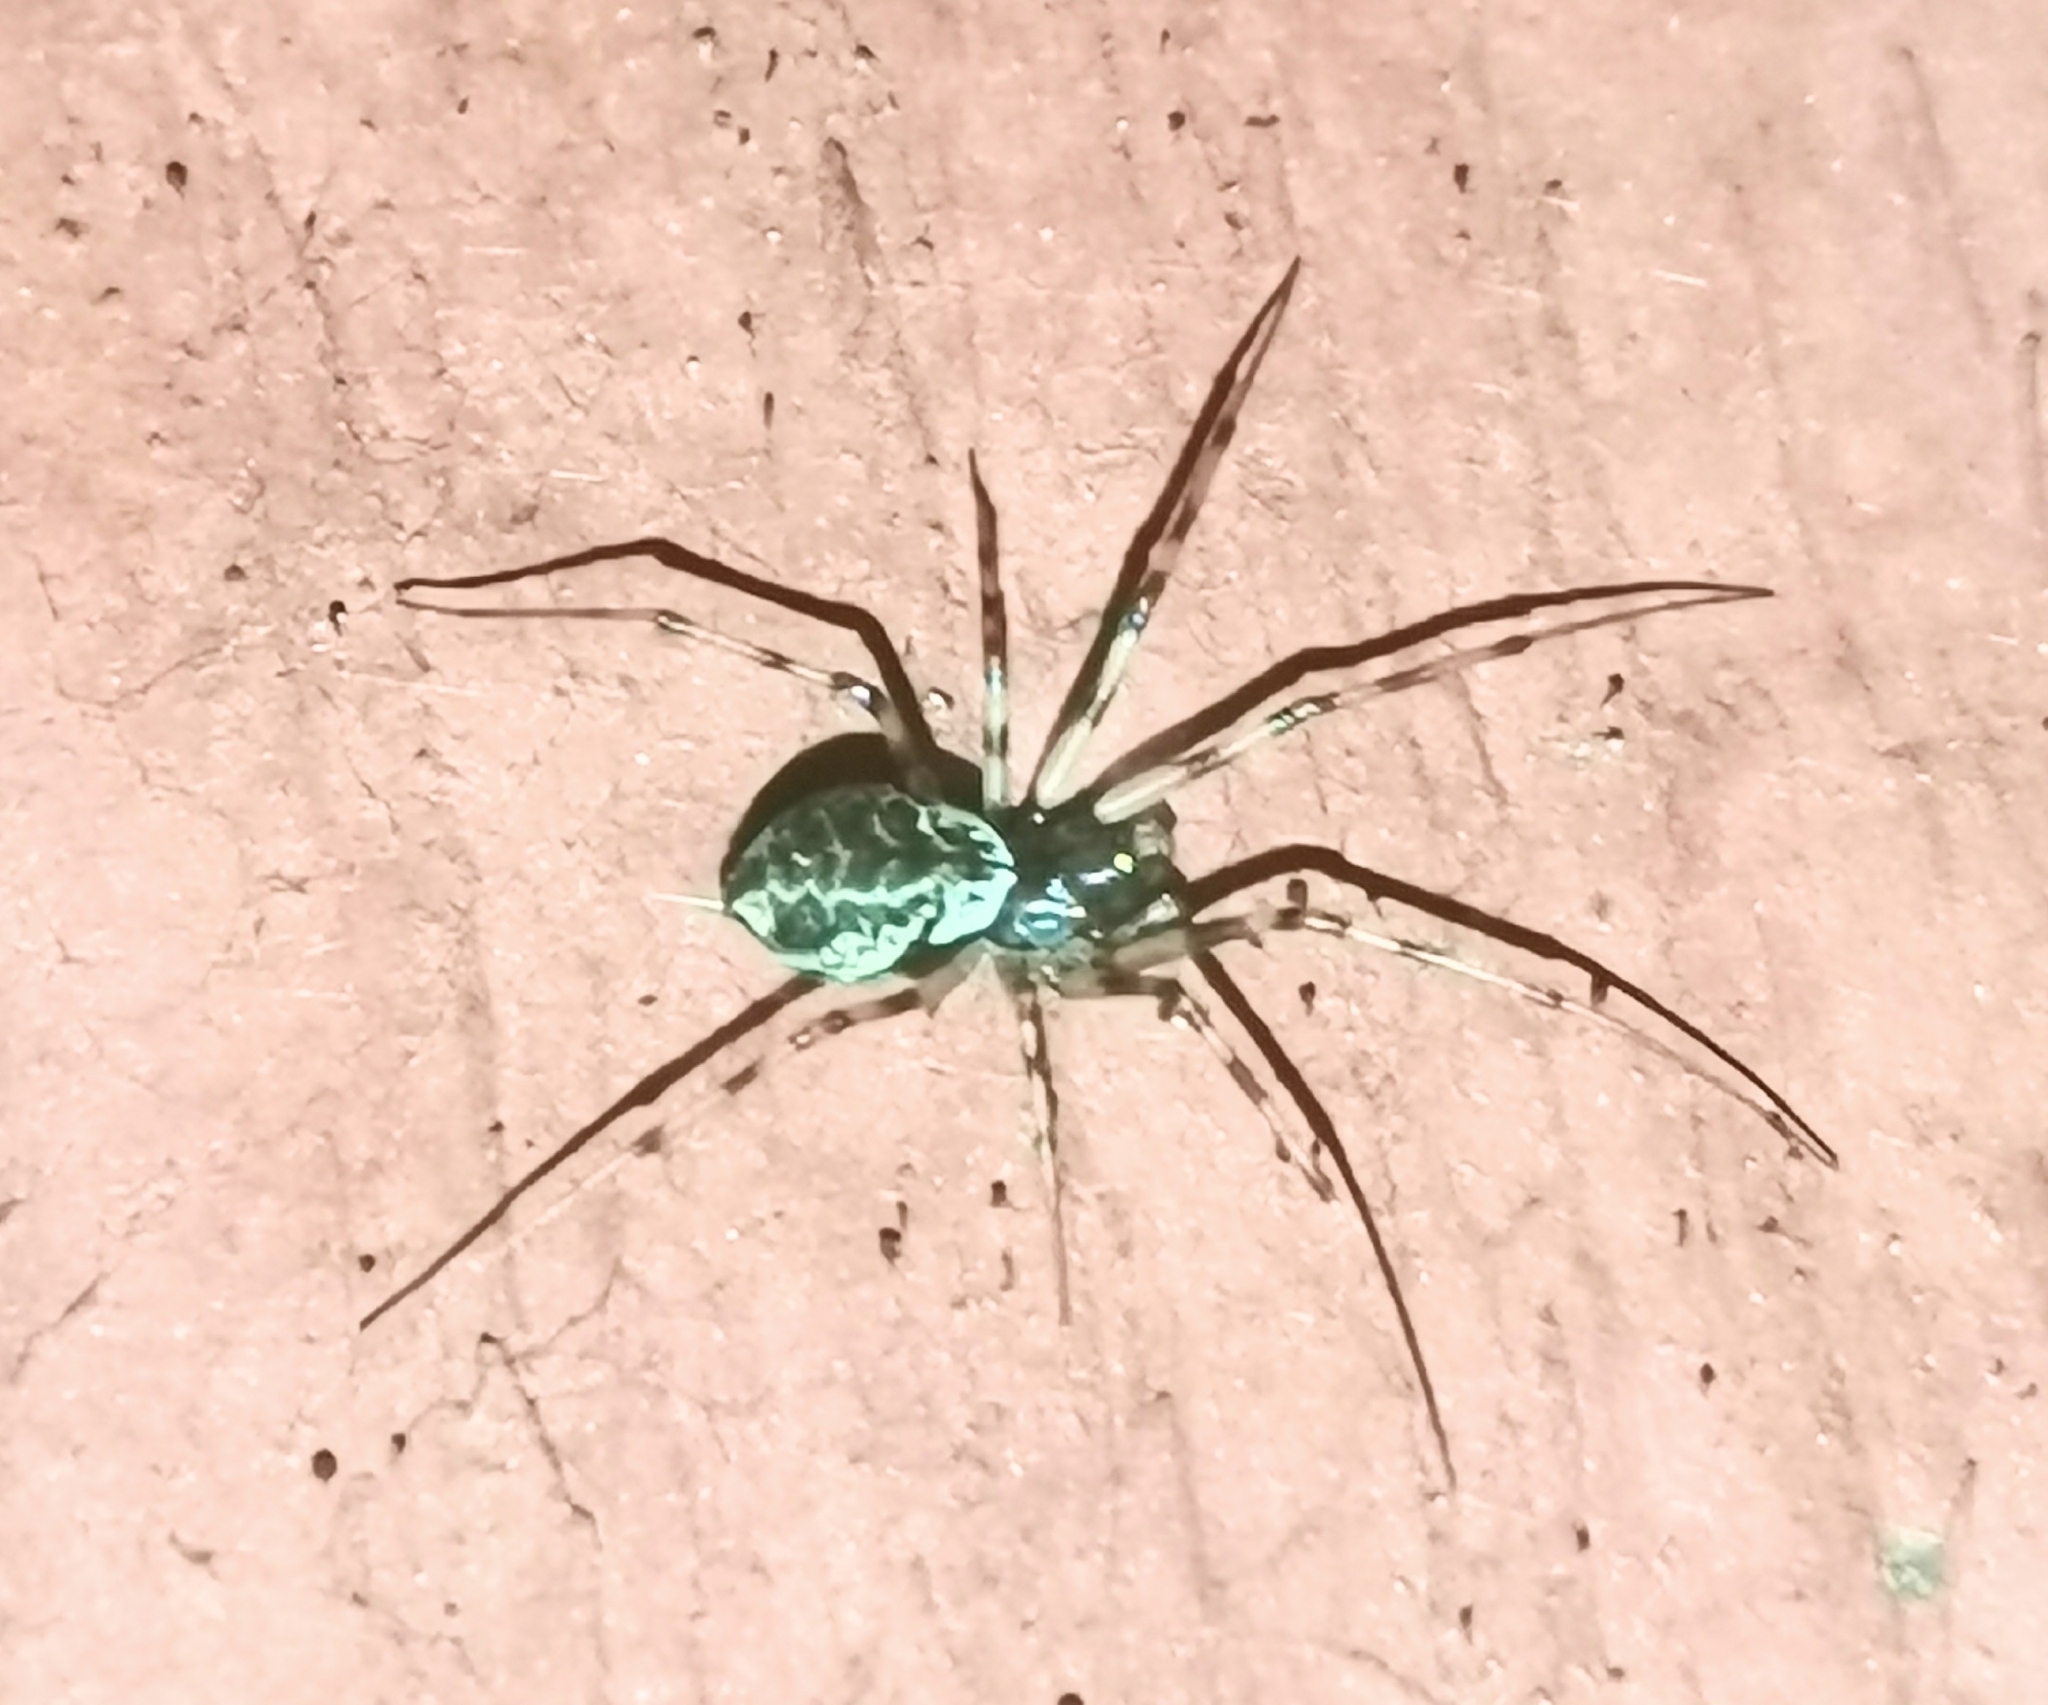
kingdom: Animalia
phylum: Arthropoda
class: Arachnida
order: Araneae
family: Linyphiidae
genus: Drapetisca
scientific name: Drapetisca socialis
